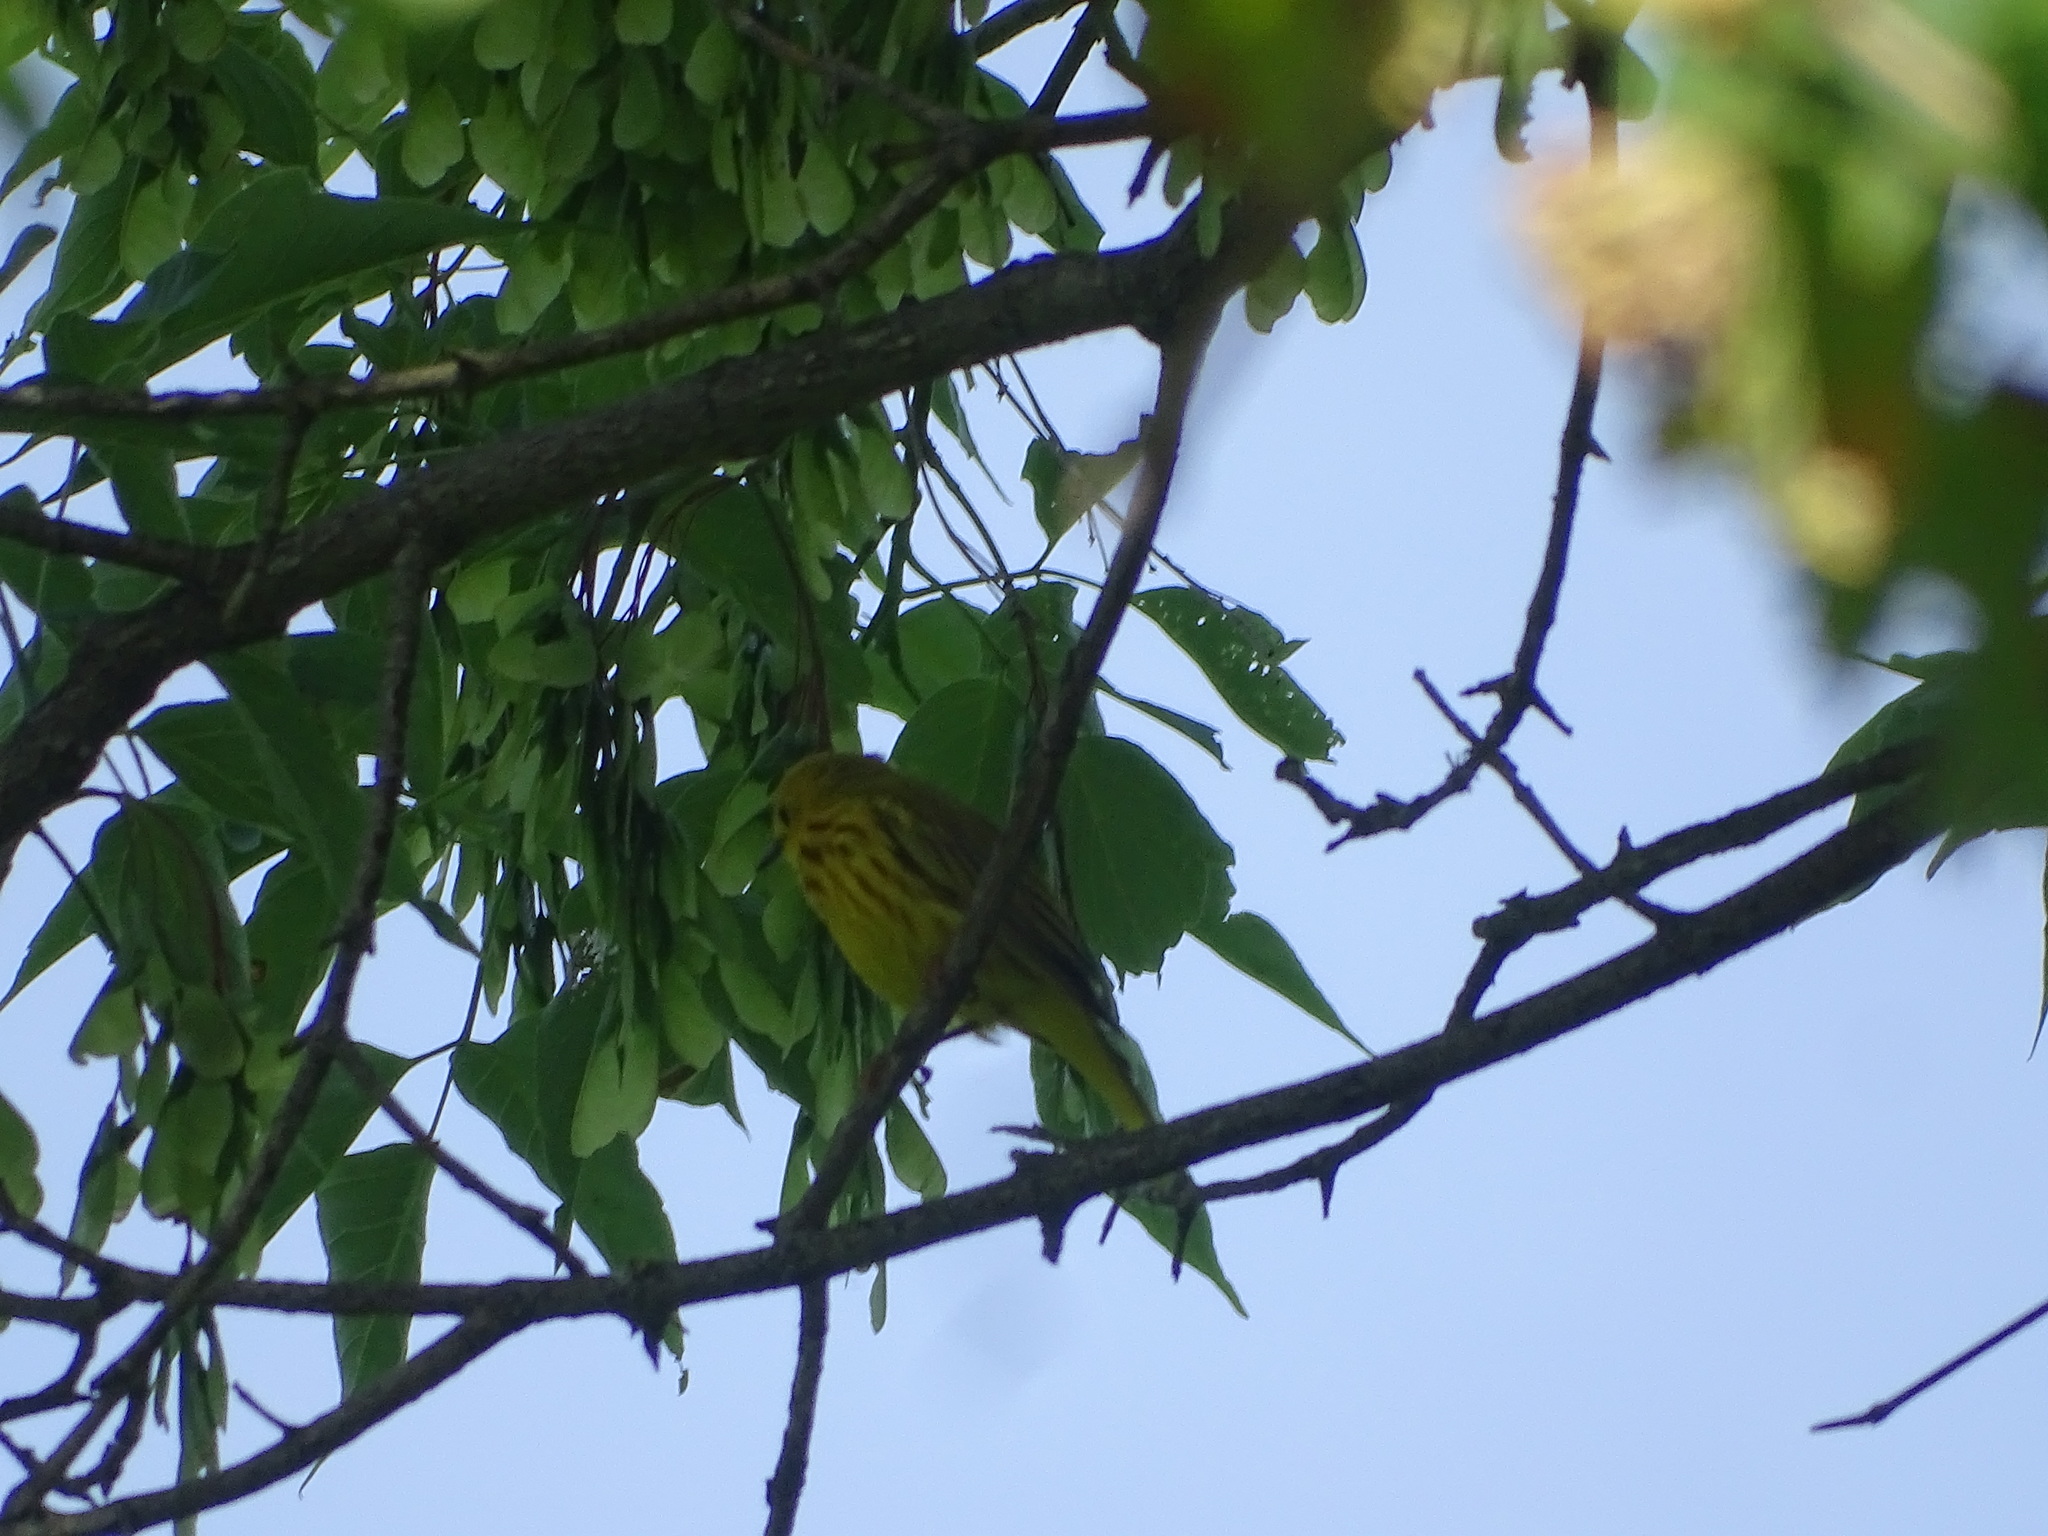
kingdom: Animalia
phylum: Chordata
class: Aves
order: Passeriformes
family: Parulidae
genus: Setophaga
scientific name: Setophaga petechia
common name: Yellow warbler
